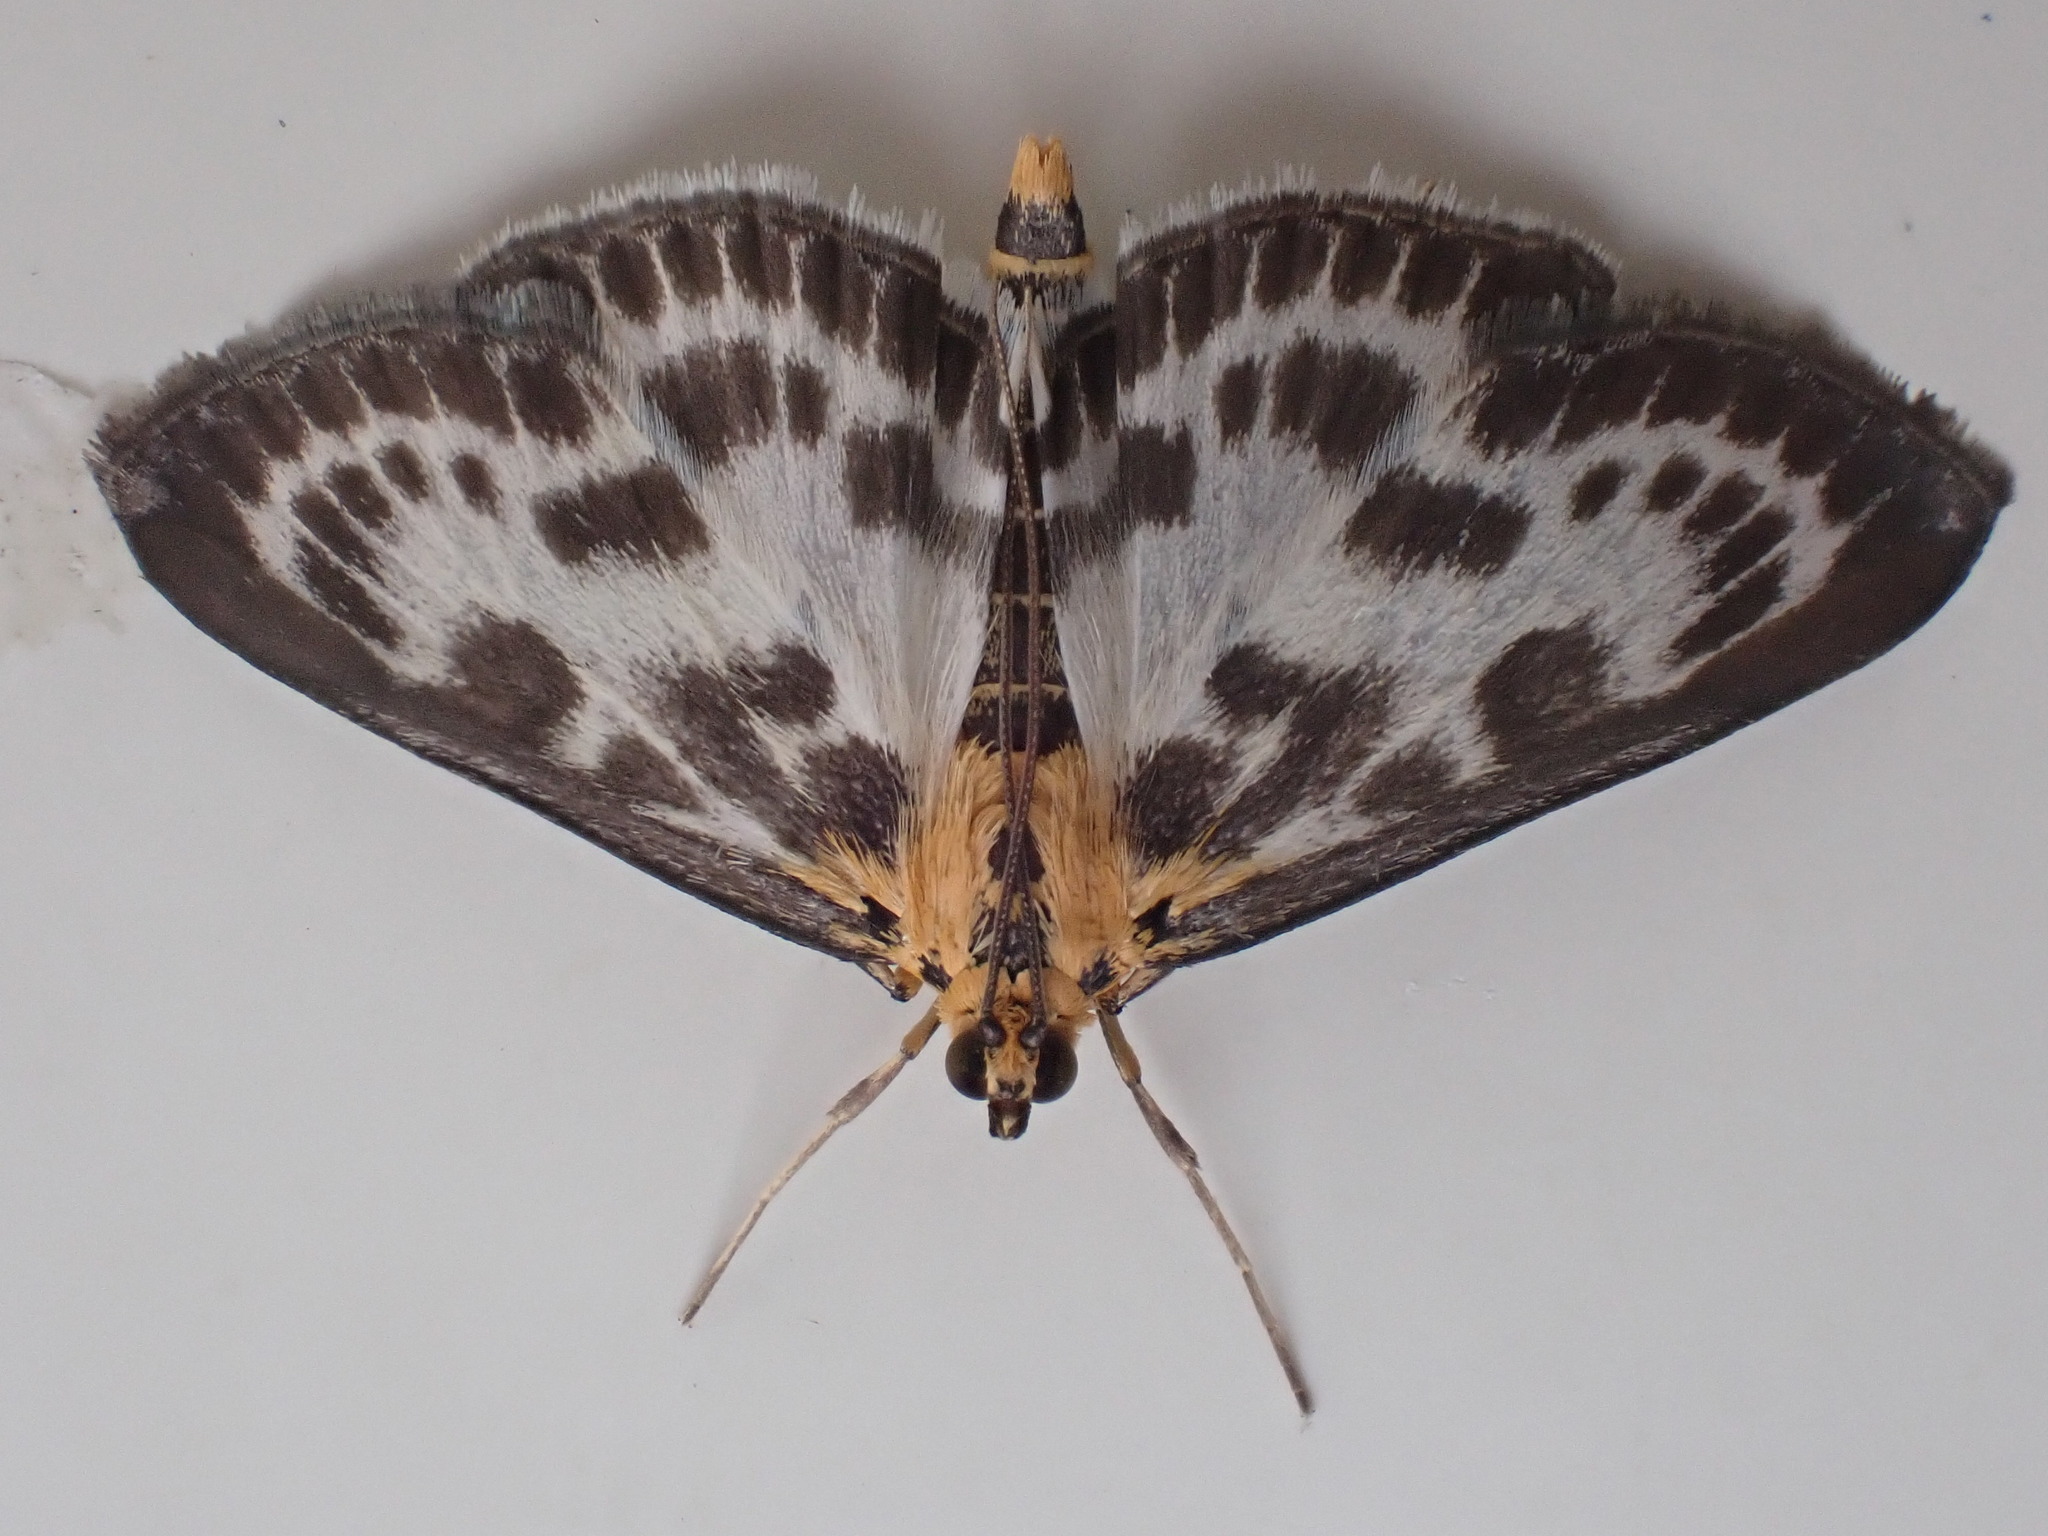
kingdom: Animalia
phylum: Arthropoda
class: Insecta
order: Lepidoptera
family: Crambidae
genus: Anania
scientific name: Anania hortulata
